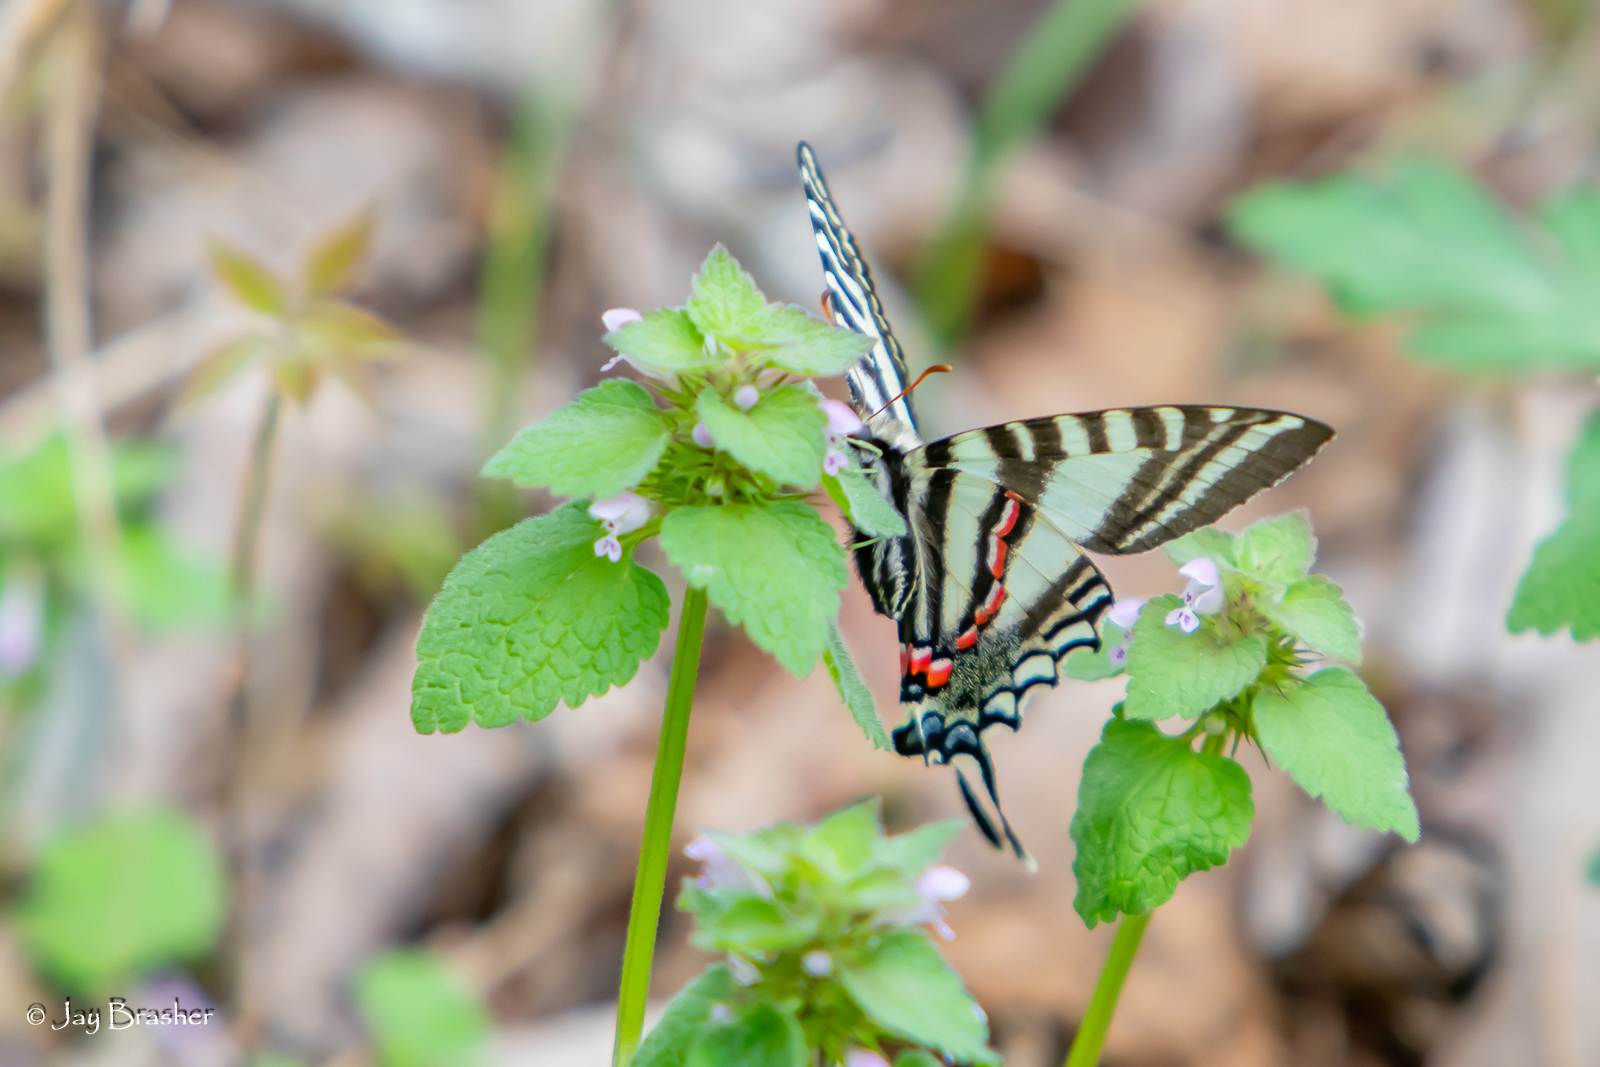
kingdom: Animalia
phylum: Arthropoda
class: Insecta
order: Lepidoptera
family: Papilionidae
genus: Protographium
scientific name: Protographium marcellus
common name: Zebra swallowtail
